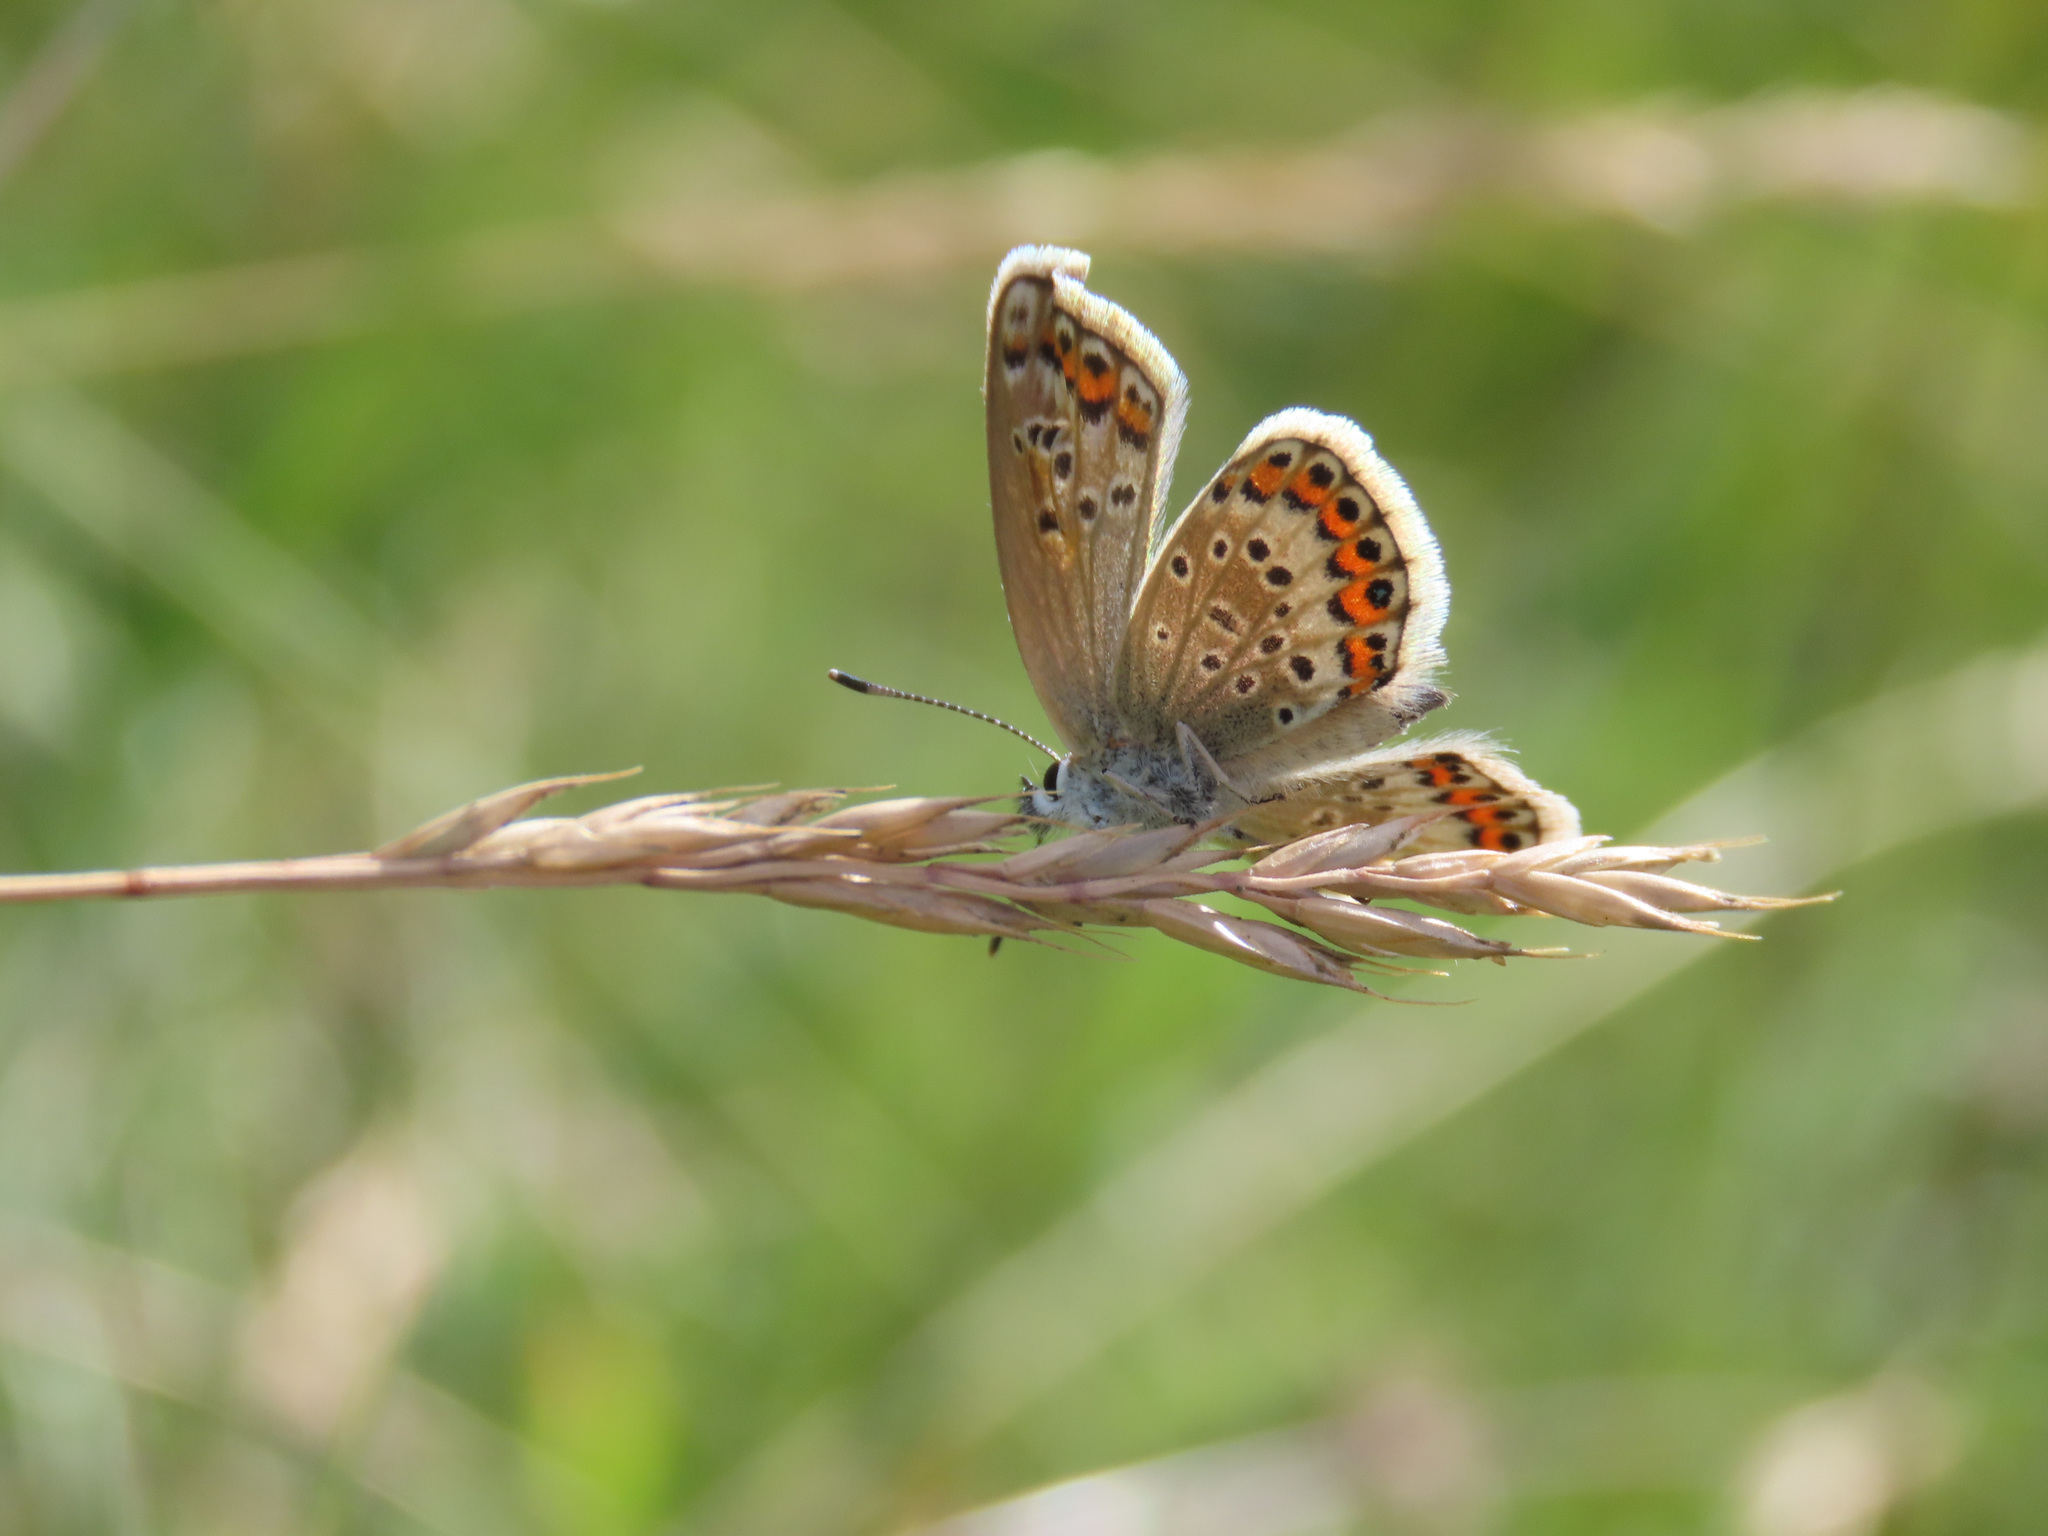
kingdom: Animalia
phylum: Arthropoda
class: Insecta
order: Lepidoptera
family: Lycaenidae
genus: Plebejus
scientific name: Plebejus argus
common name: Silver-studded blue
